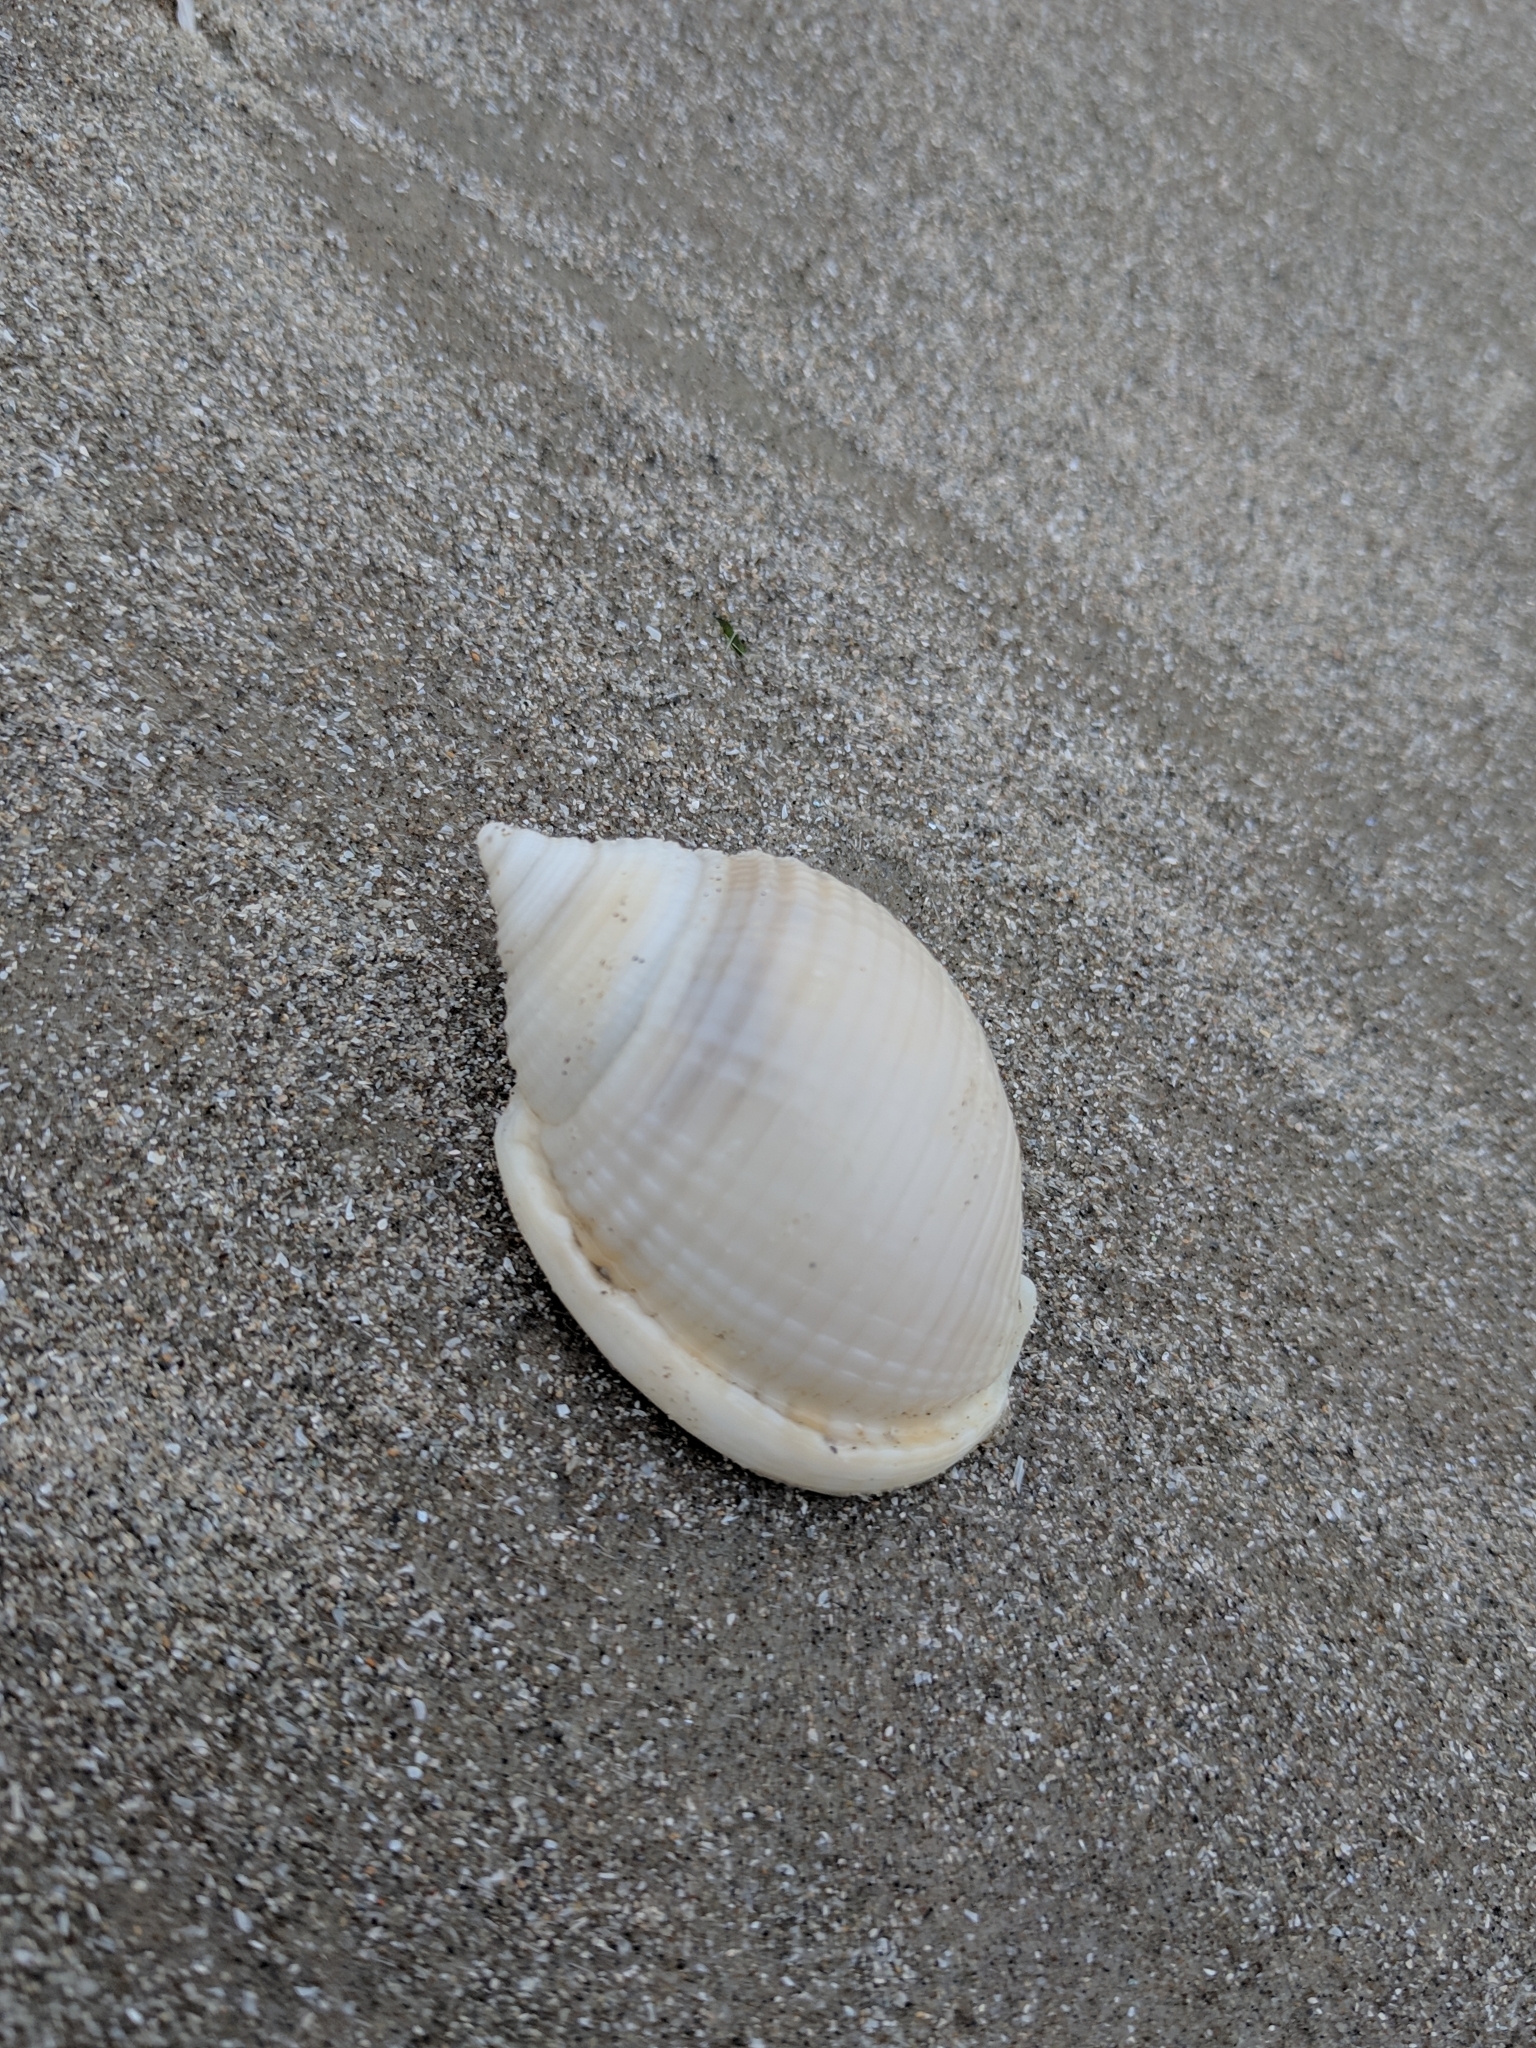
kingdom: Animalia
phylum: Mollusca
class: Gastropoda
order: Littorinimorpha
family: Cassidae
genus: Semicassis
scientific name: Semicassis granulata
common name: Scotch bonnet
